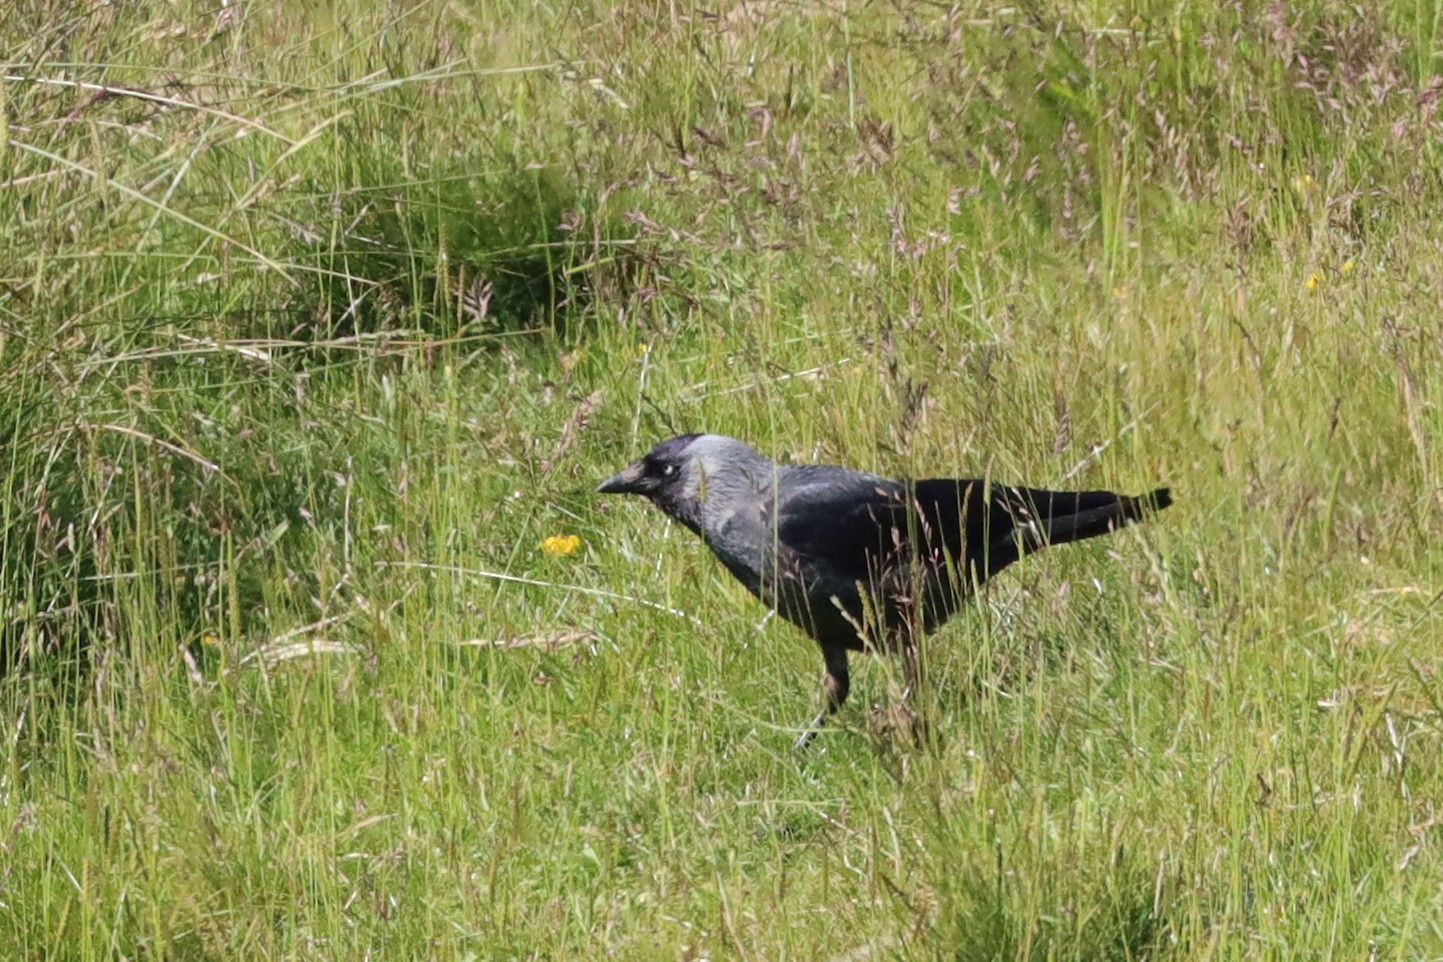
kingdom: Animalia
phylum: Chordata
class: Aves
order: Passeriformes
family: Corvidae
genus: Coloeus
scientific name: Coloeus monedula
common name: Western jackdaw
